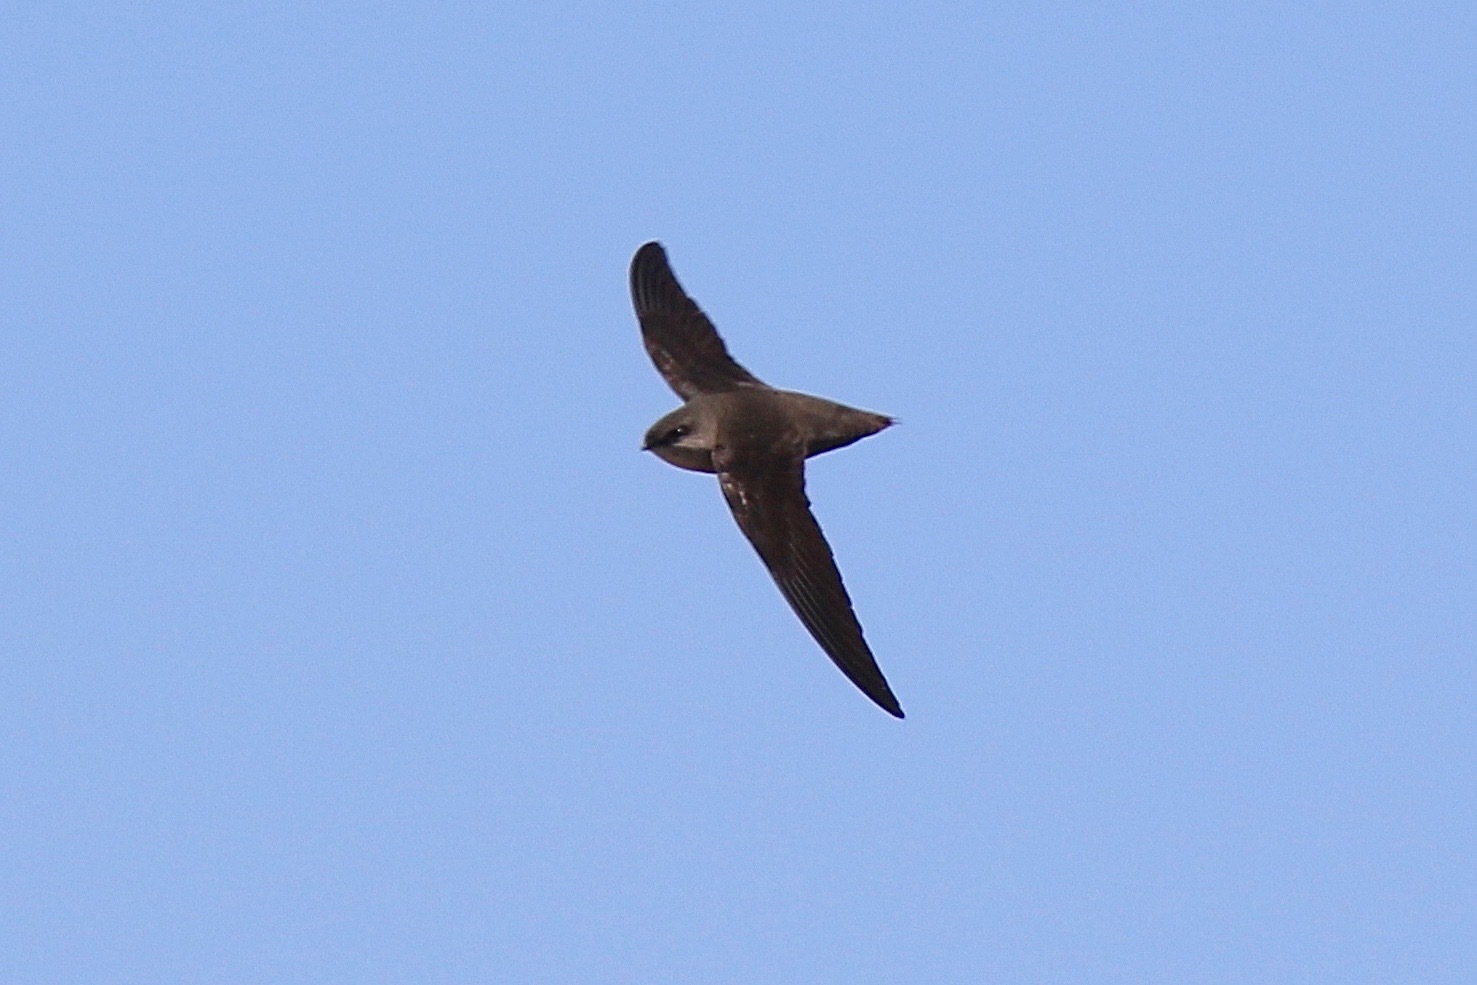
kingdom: Animalia
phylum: Chordata
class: Aves
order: Apodiformes
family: Apodidae
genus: Chaetura
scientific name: Chaetura pelagica
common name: Chimney swift
